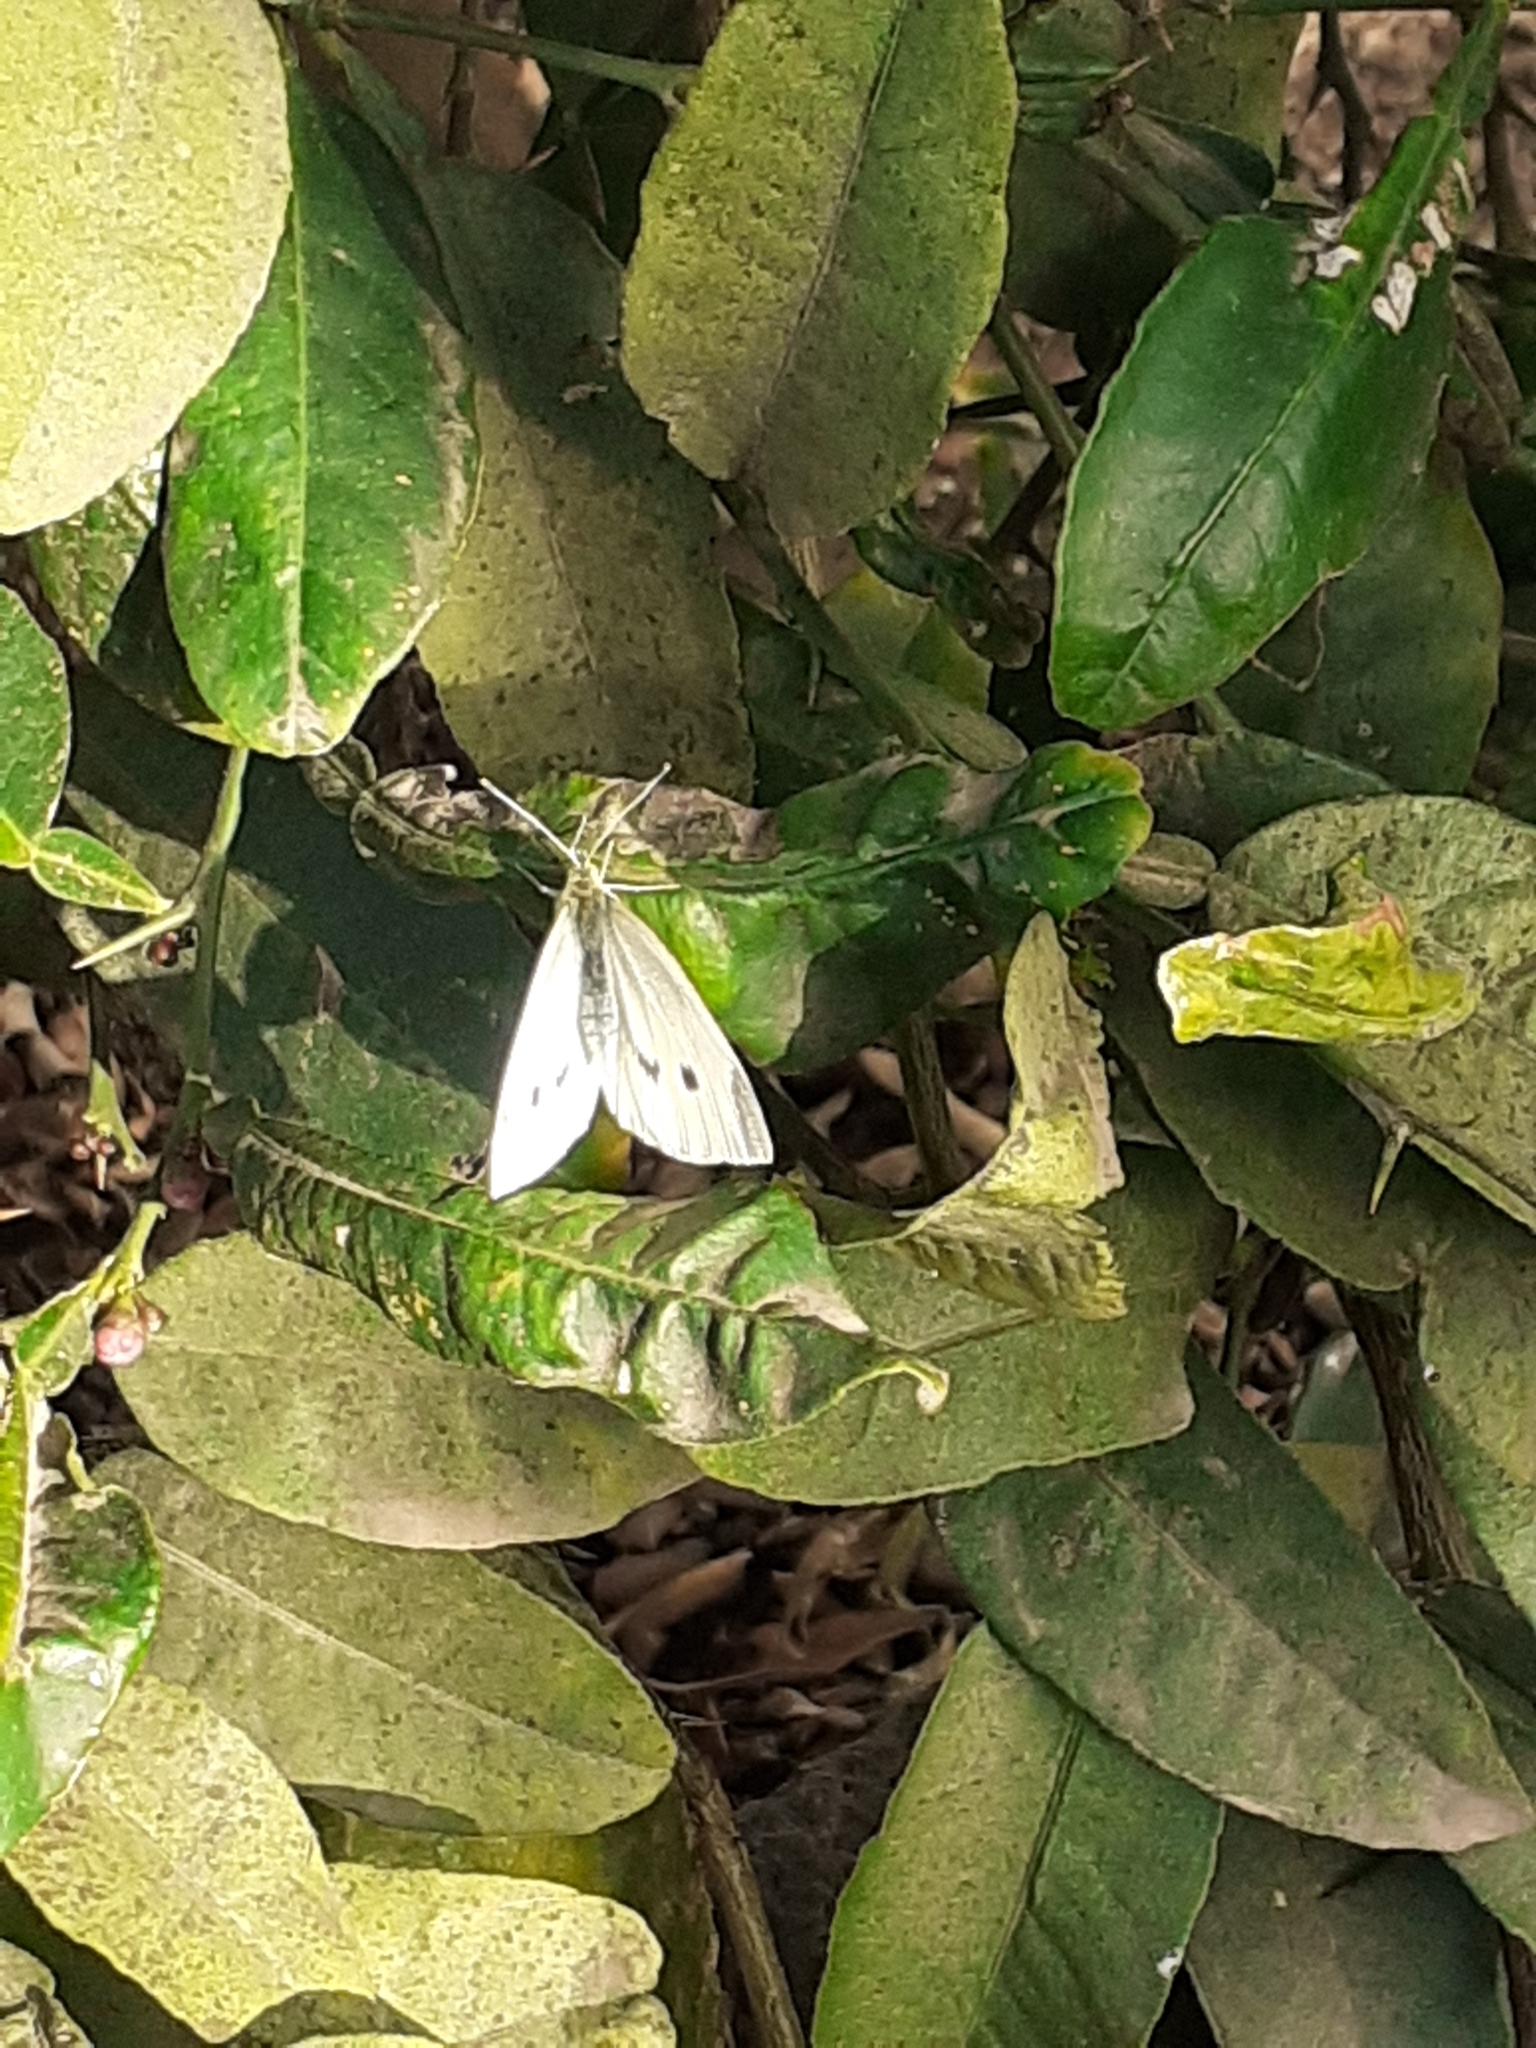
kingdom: Animalia
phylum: Arthropoda
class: Insecta
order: Lepidoptera
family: Pieridae
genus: Pieris
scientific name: Pieris rapae
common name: Small white
